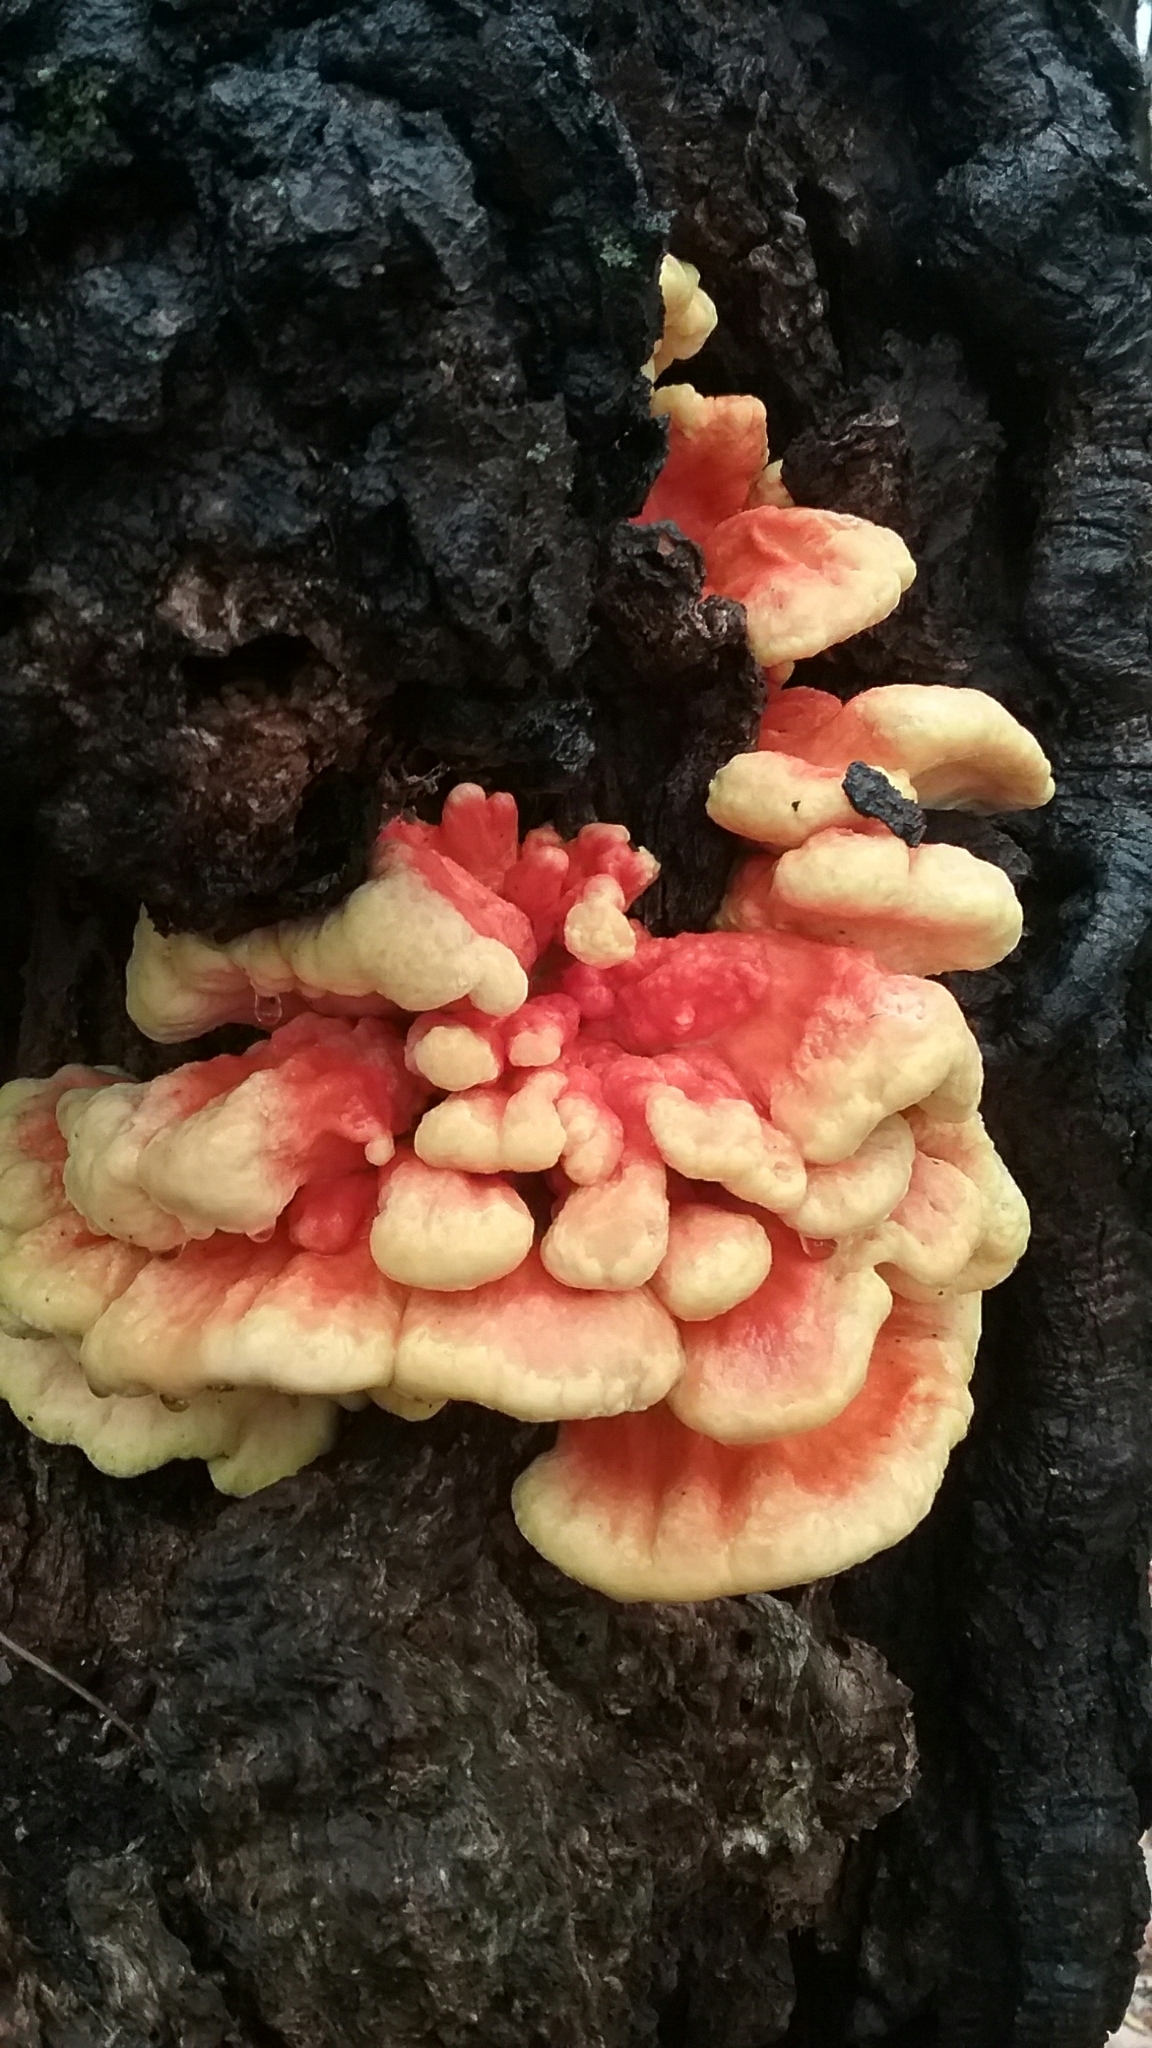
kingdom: Fungi
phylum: Basidiomycota
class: Agaricomycetes
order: Polyporales
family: Laetiporaceae
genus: Laetiporus
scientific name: Laetiporus sulphureus
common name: Chicken of the woods
